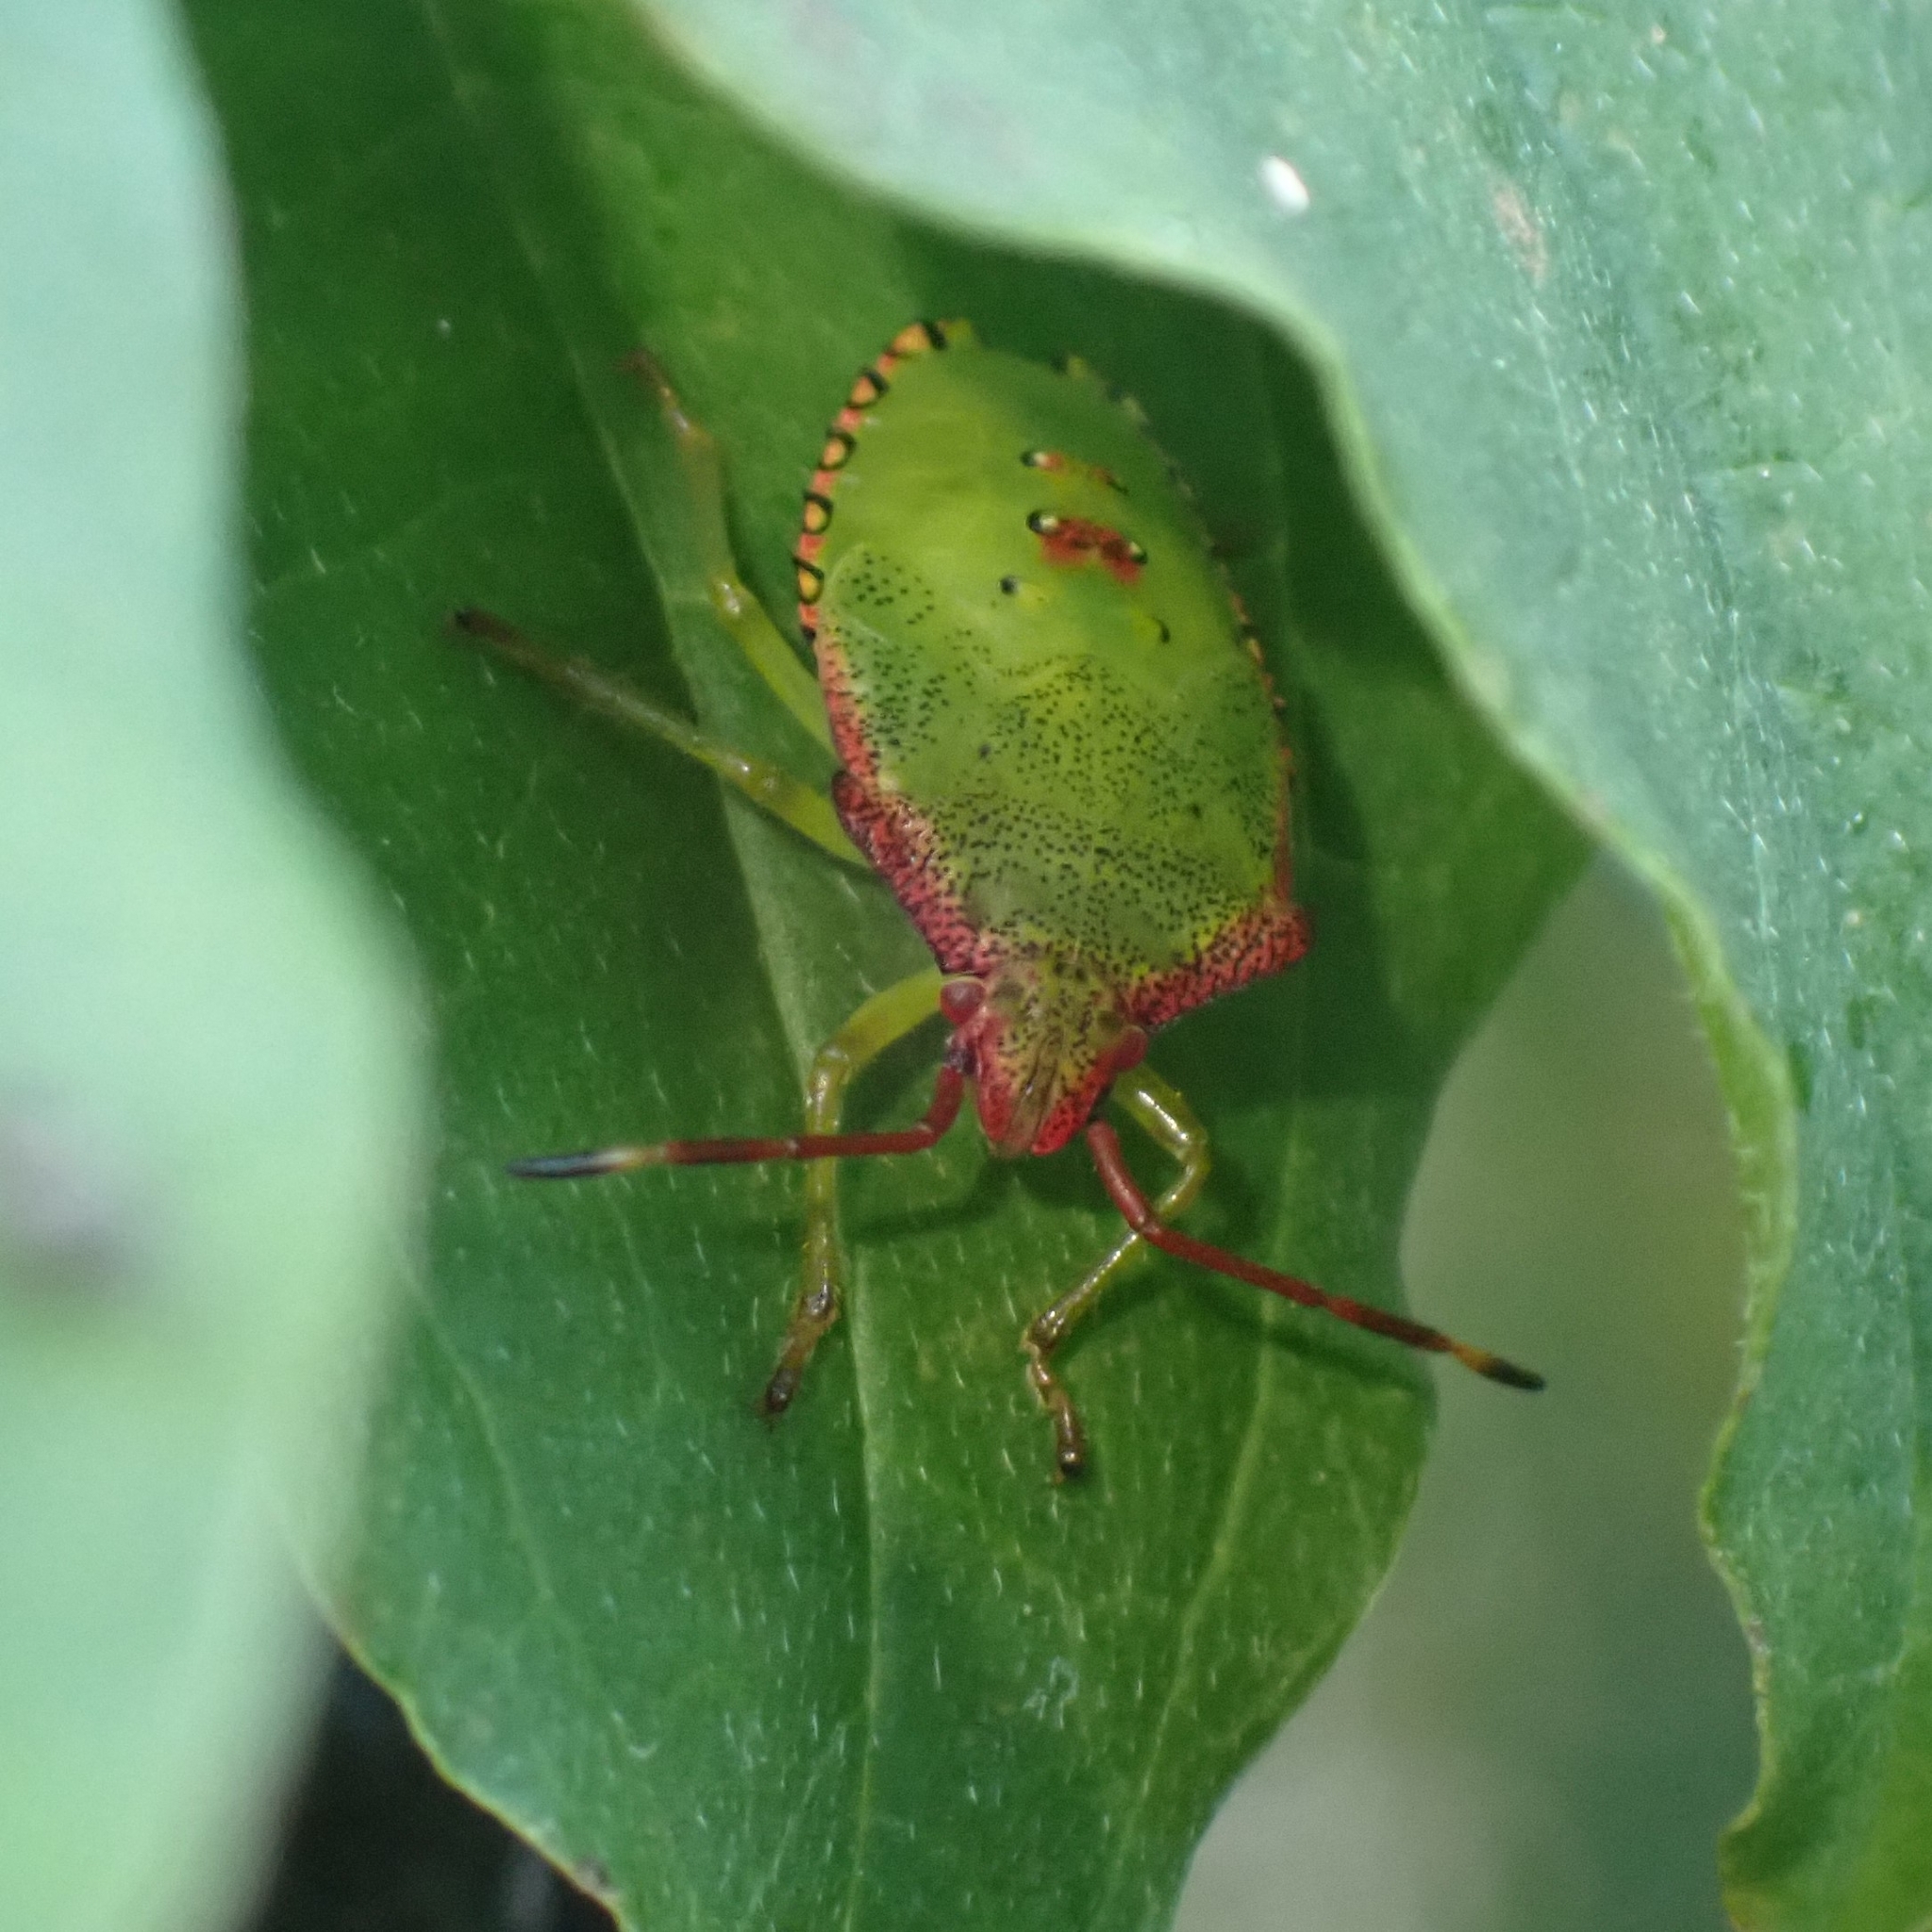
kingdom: Animalia
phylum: Arthropoda
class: Insecta
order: Hemiptera
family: Acanthosomatidae
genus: Acanthosoma
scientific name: Acanthosoma haemorrhoidale
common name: Hawthorn shieldbug
